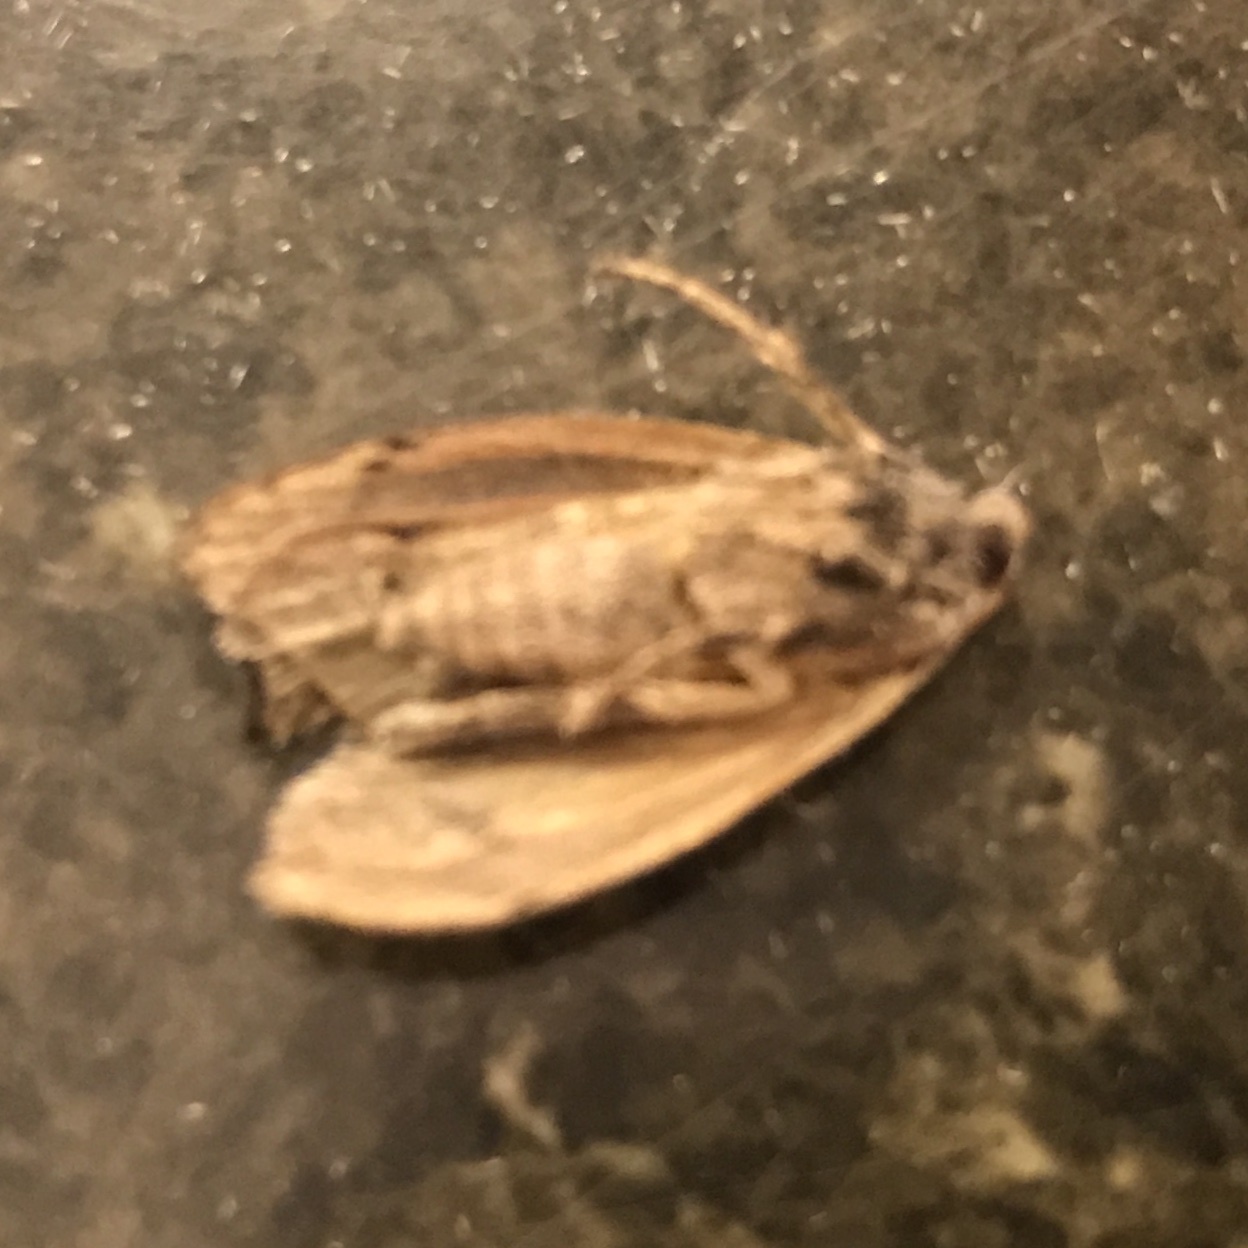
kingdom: Animalia
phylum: Arthropoda
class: Insecta
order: Lepidoptera
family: Pyralidae
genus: Galleria
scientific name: Galleria mellonella
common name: Greater wax moth
